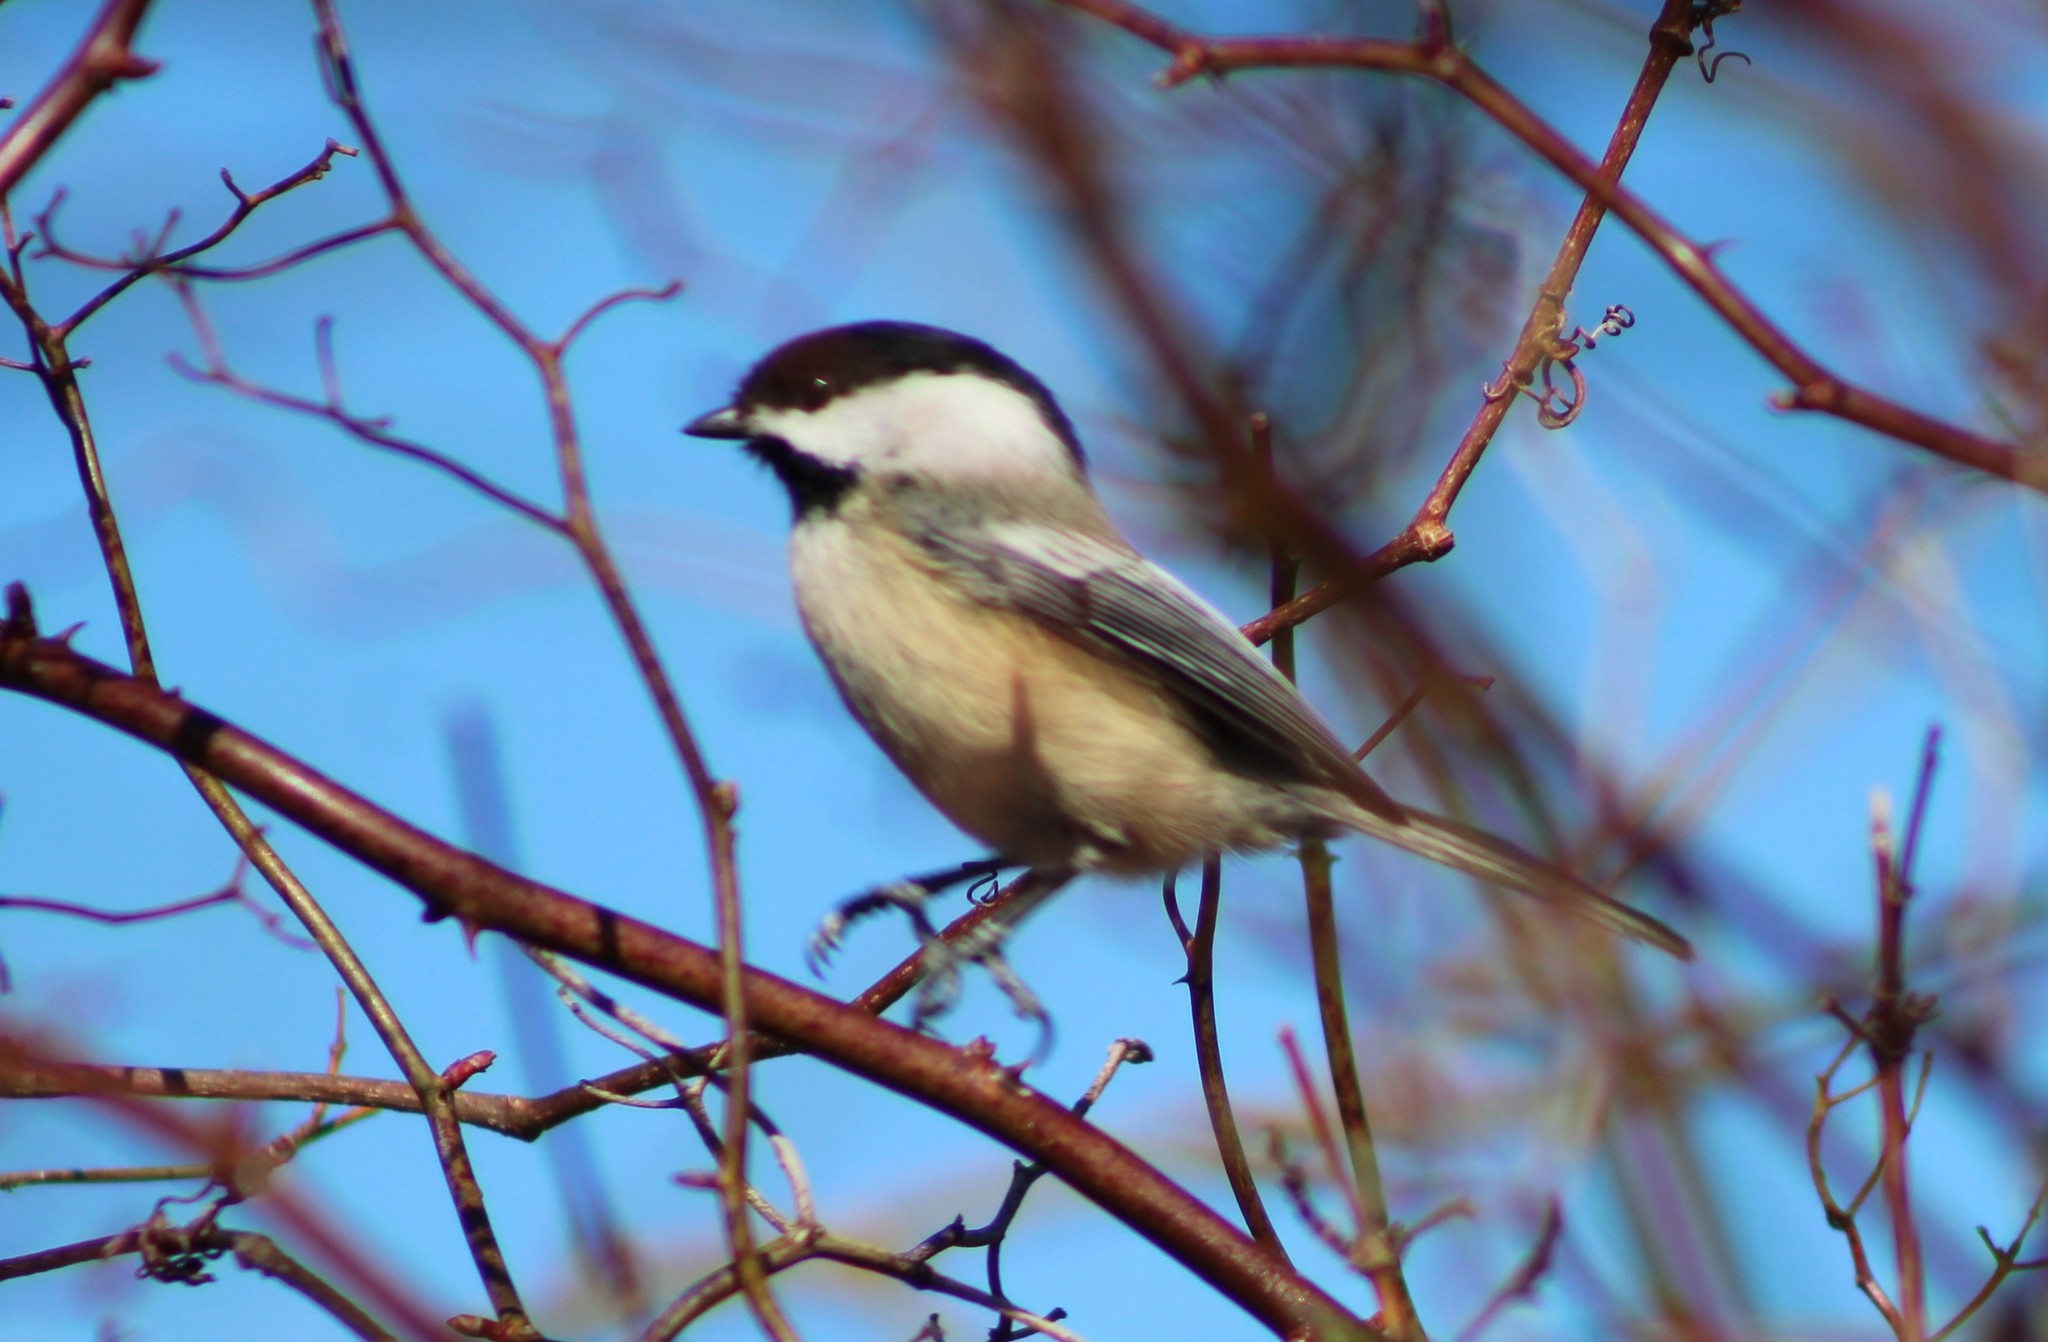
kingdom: Animalia
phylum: Chordata
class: Aves
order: Passeriformes
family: Paridae
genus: Poecile
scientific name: Poecile atricapillus
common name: Black-capped chickadee
